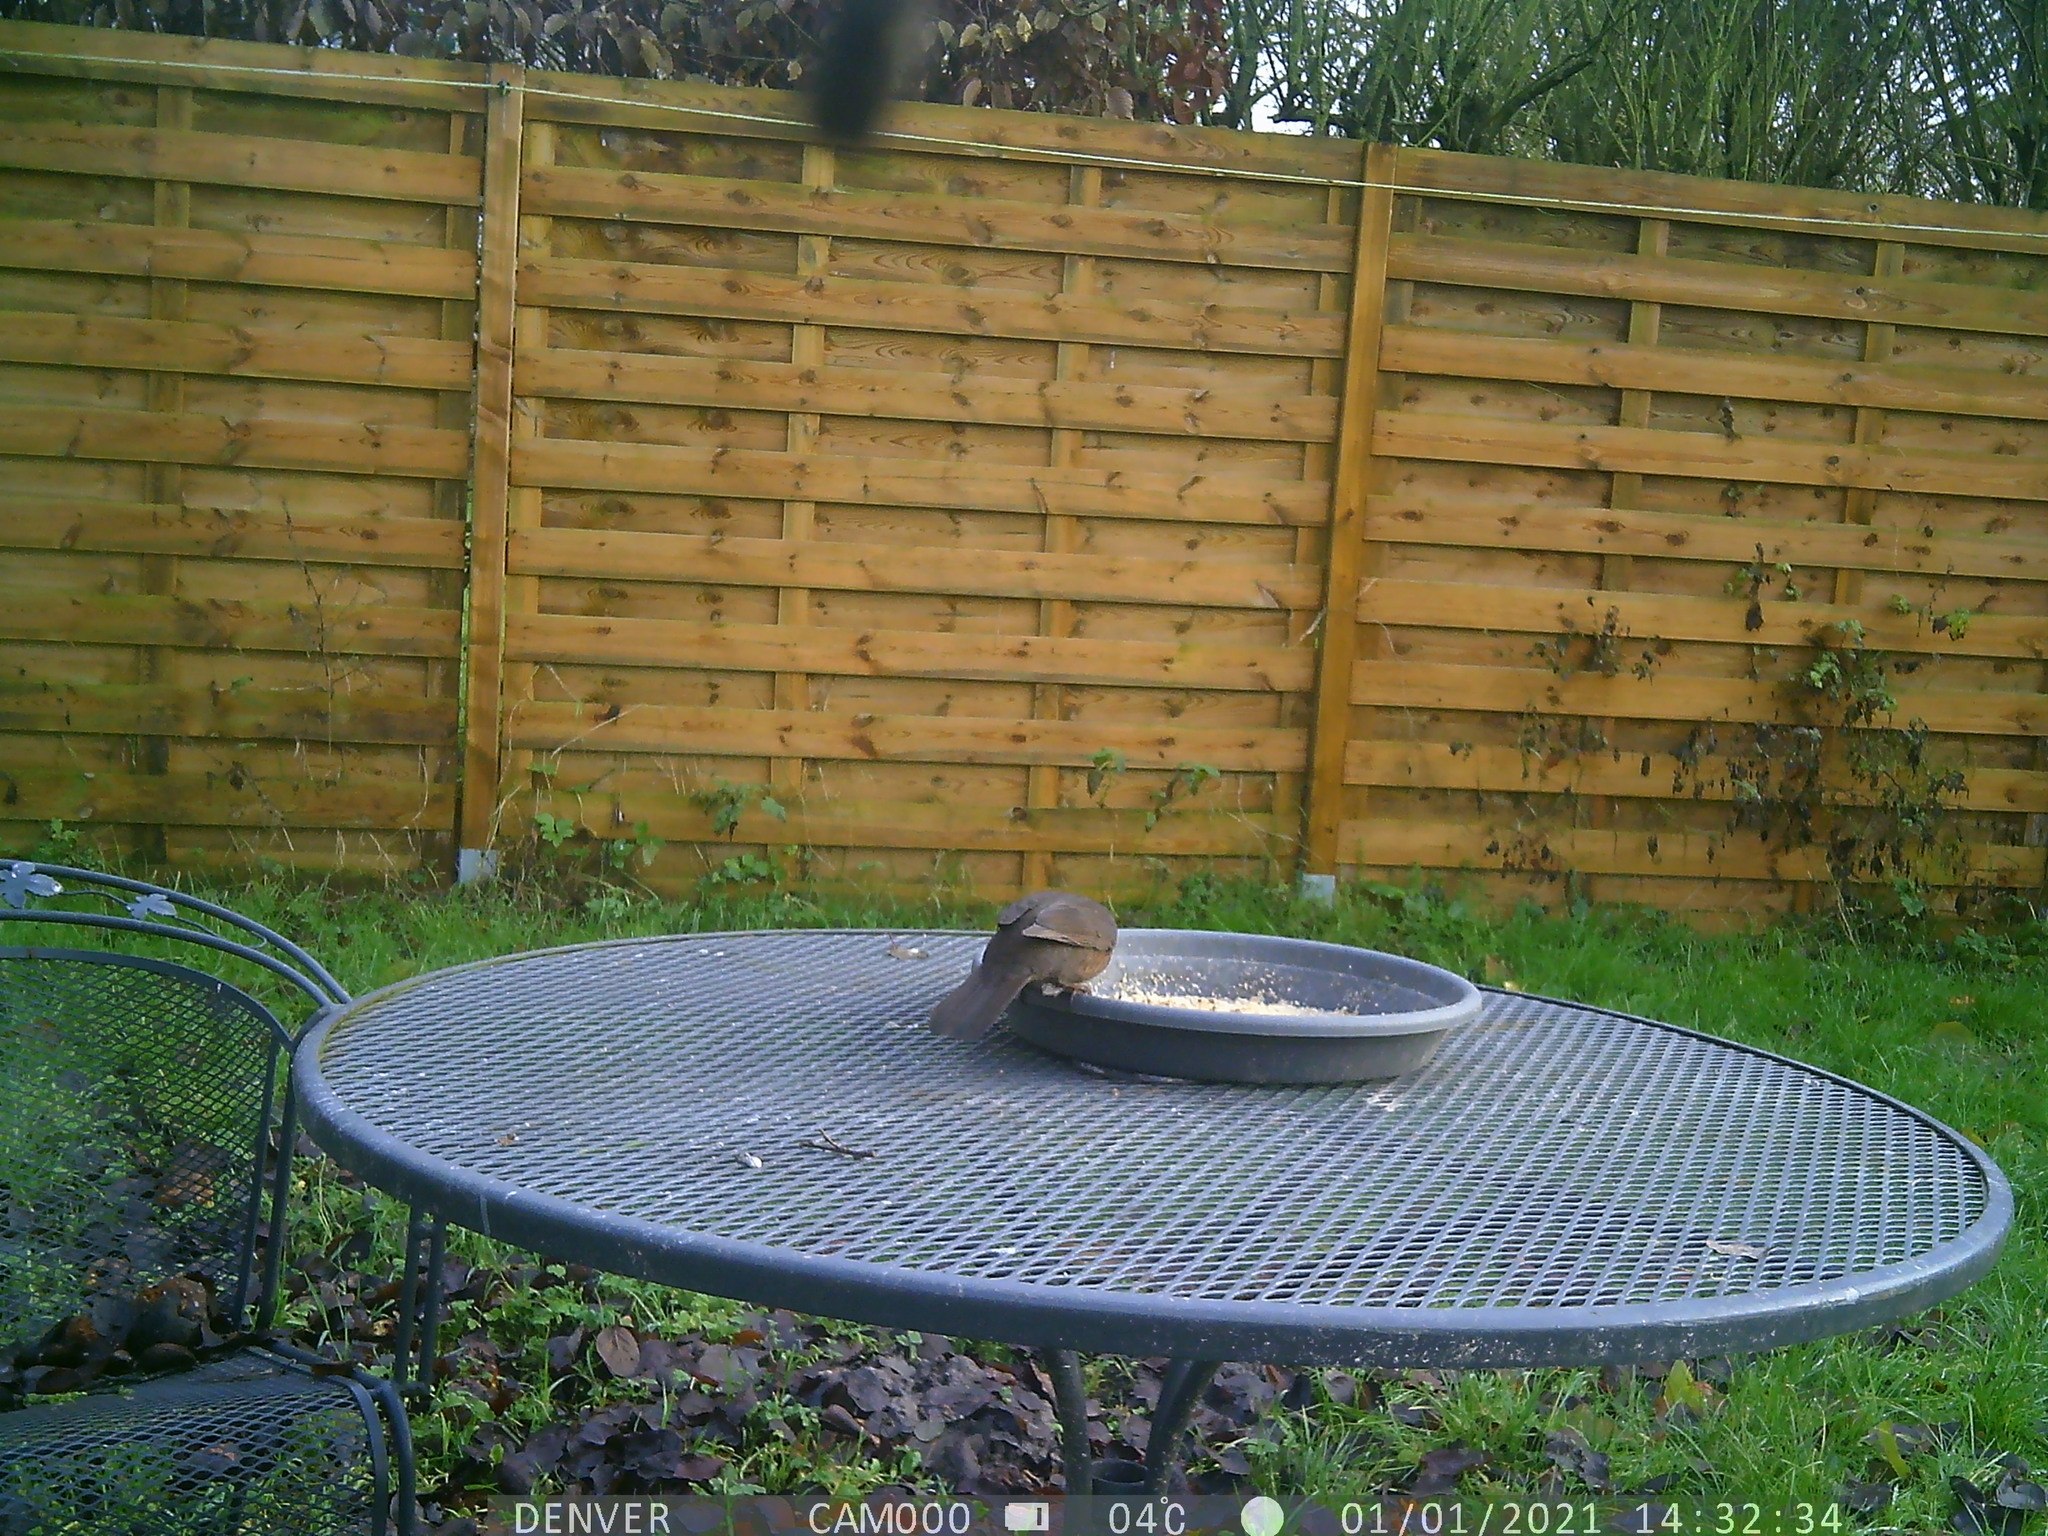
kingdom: Animalia
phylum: Chordata
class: Aves
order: Passeriformes
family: Turdidae
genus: Turdus
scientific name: Turdus merula
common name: Common blackbird
